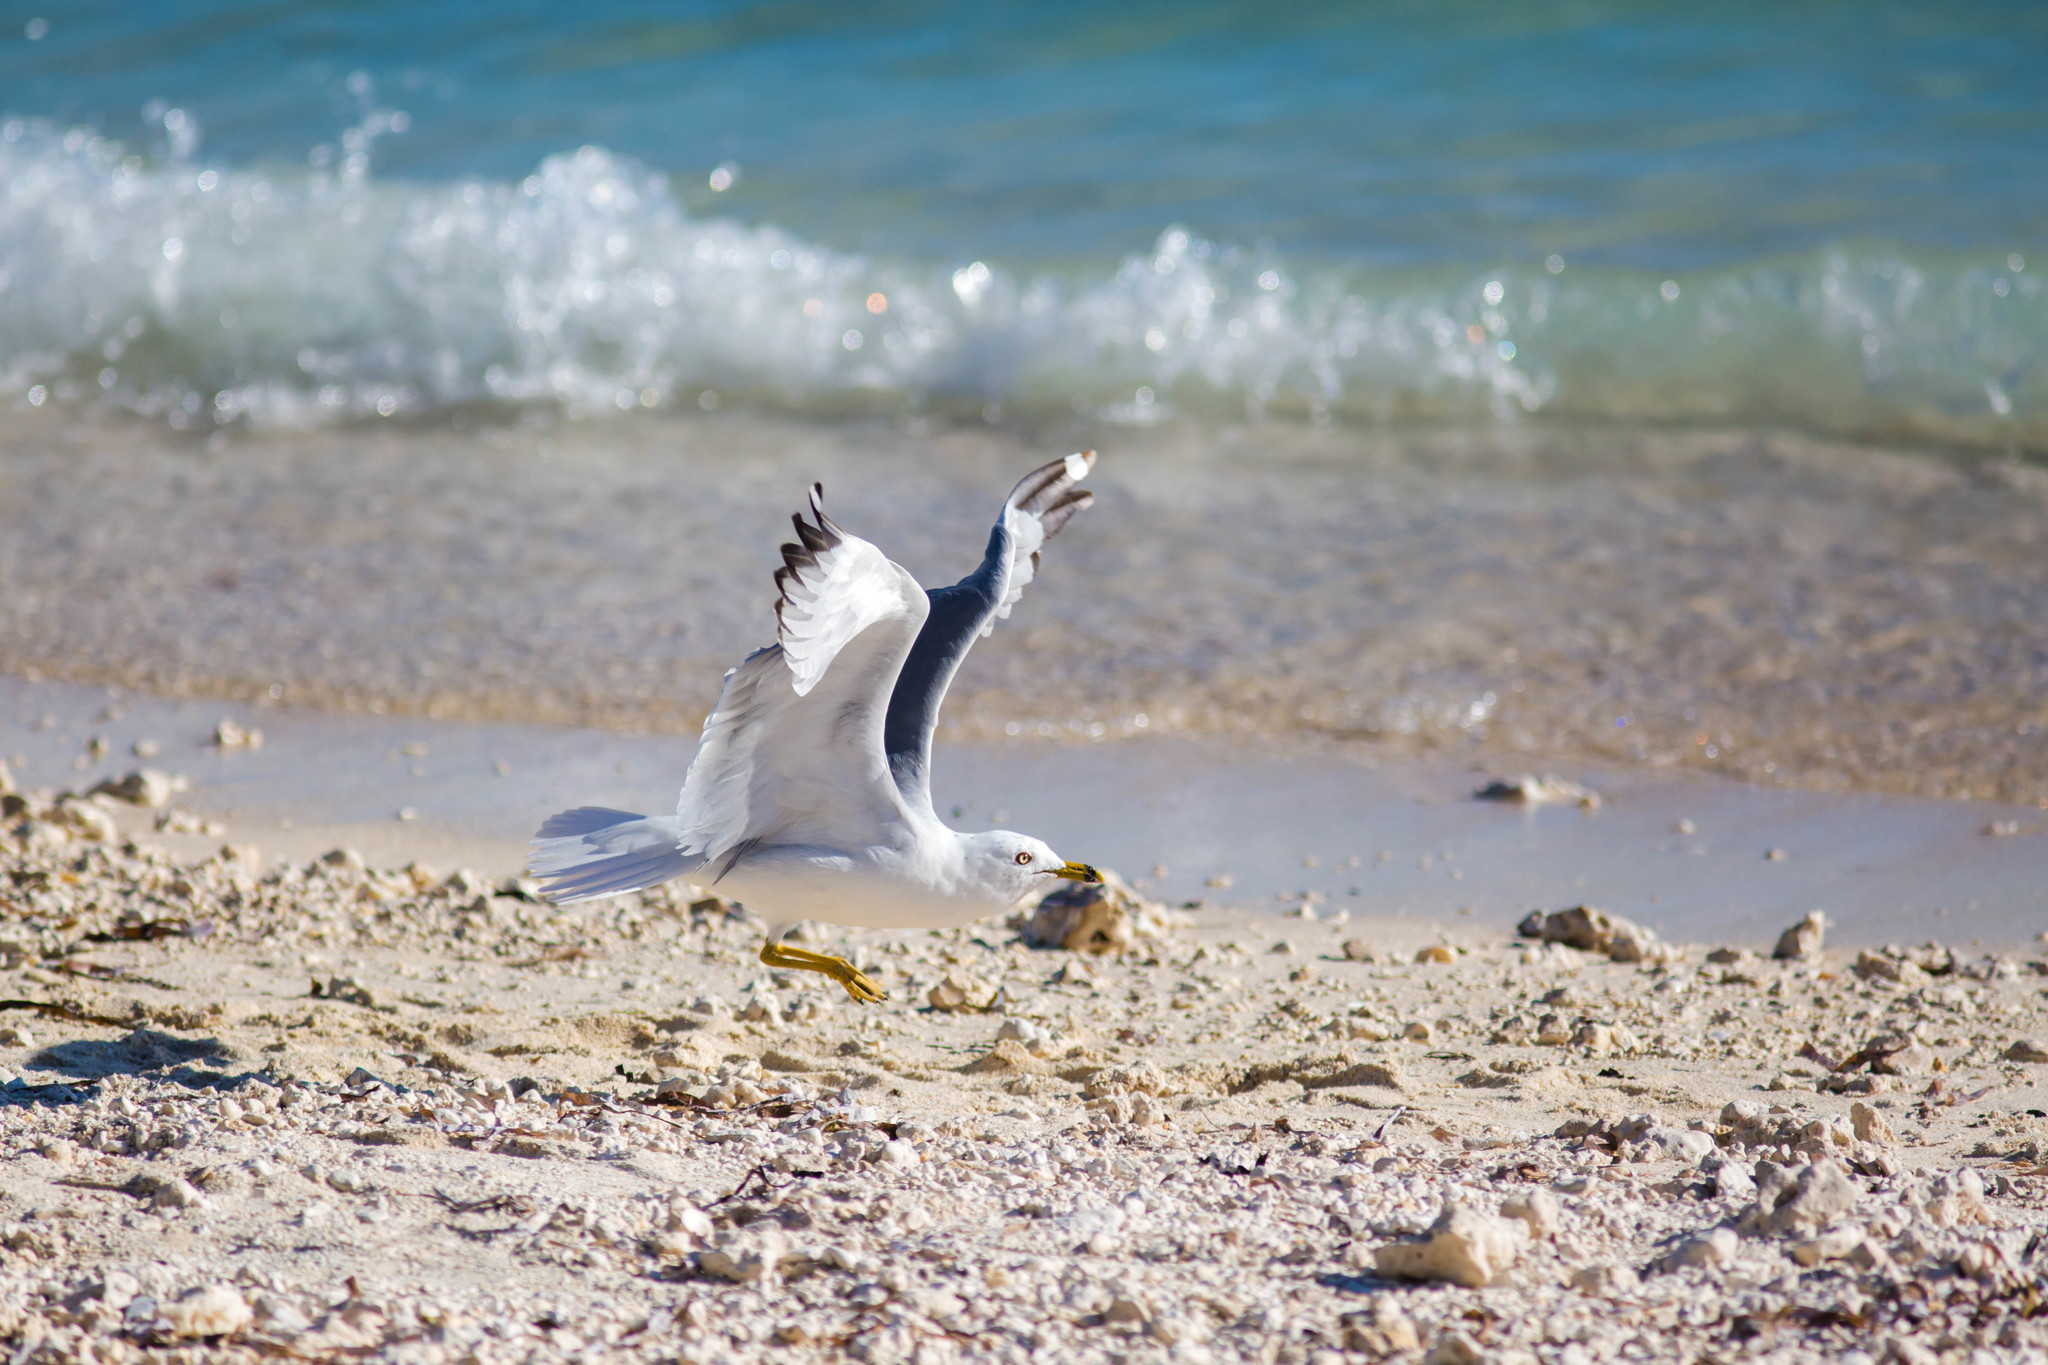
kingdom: Animalia
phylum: Chordata
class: Aves
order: Charadriiformes
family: Laridae
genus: Larus
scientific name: Larus delawarensis
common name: Ring-billed gull
